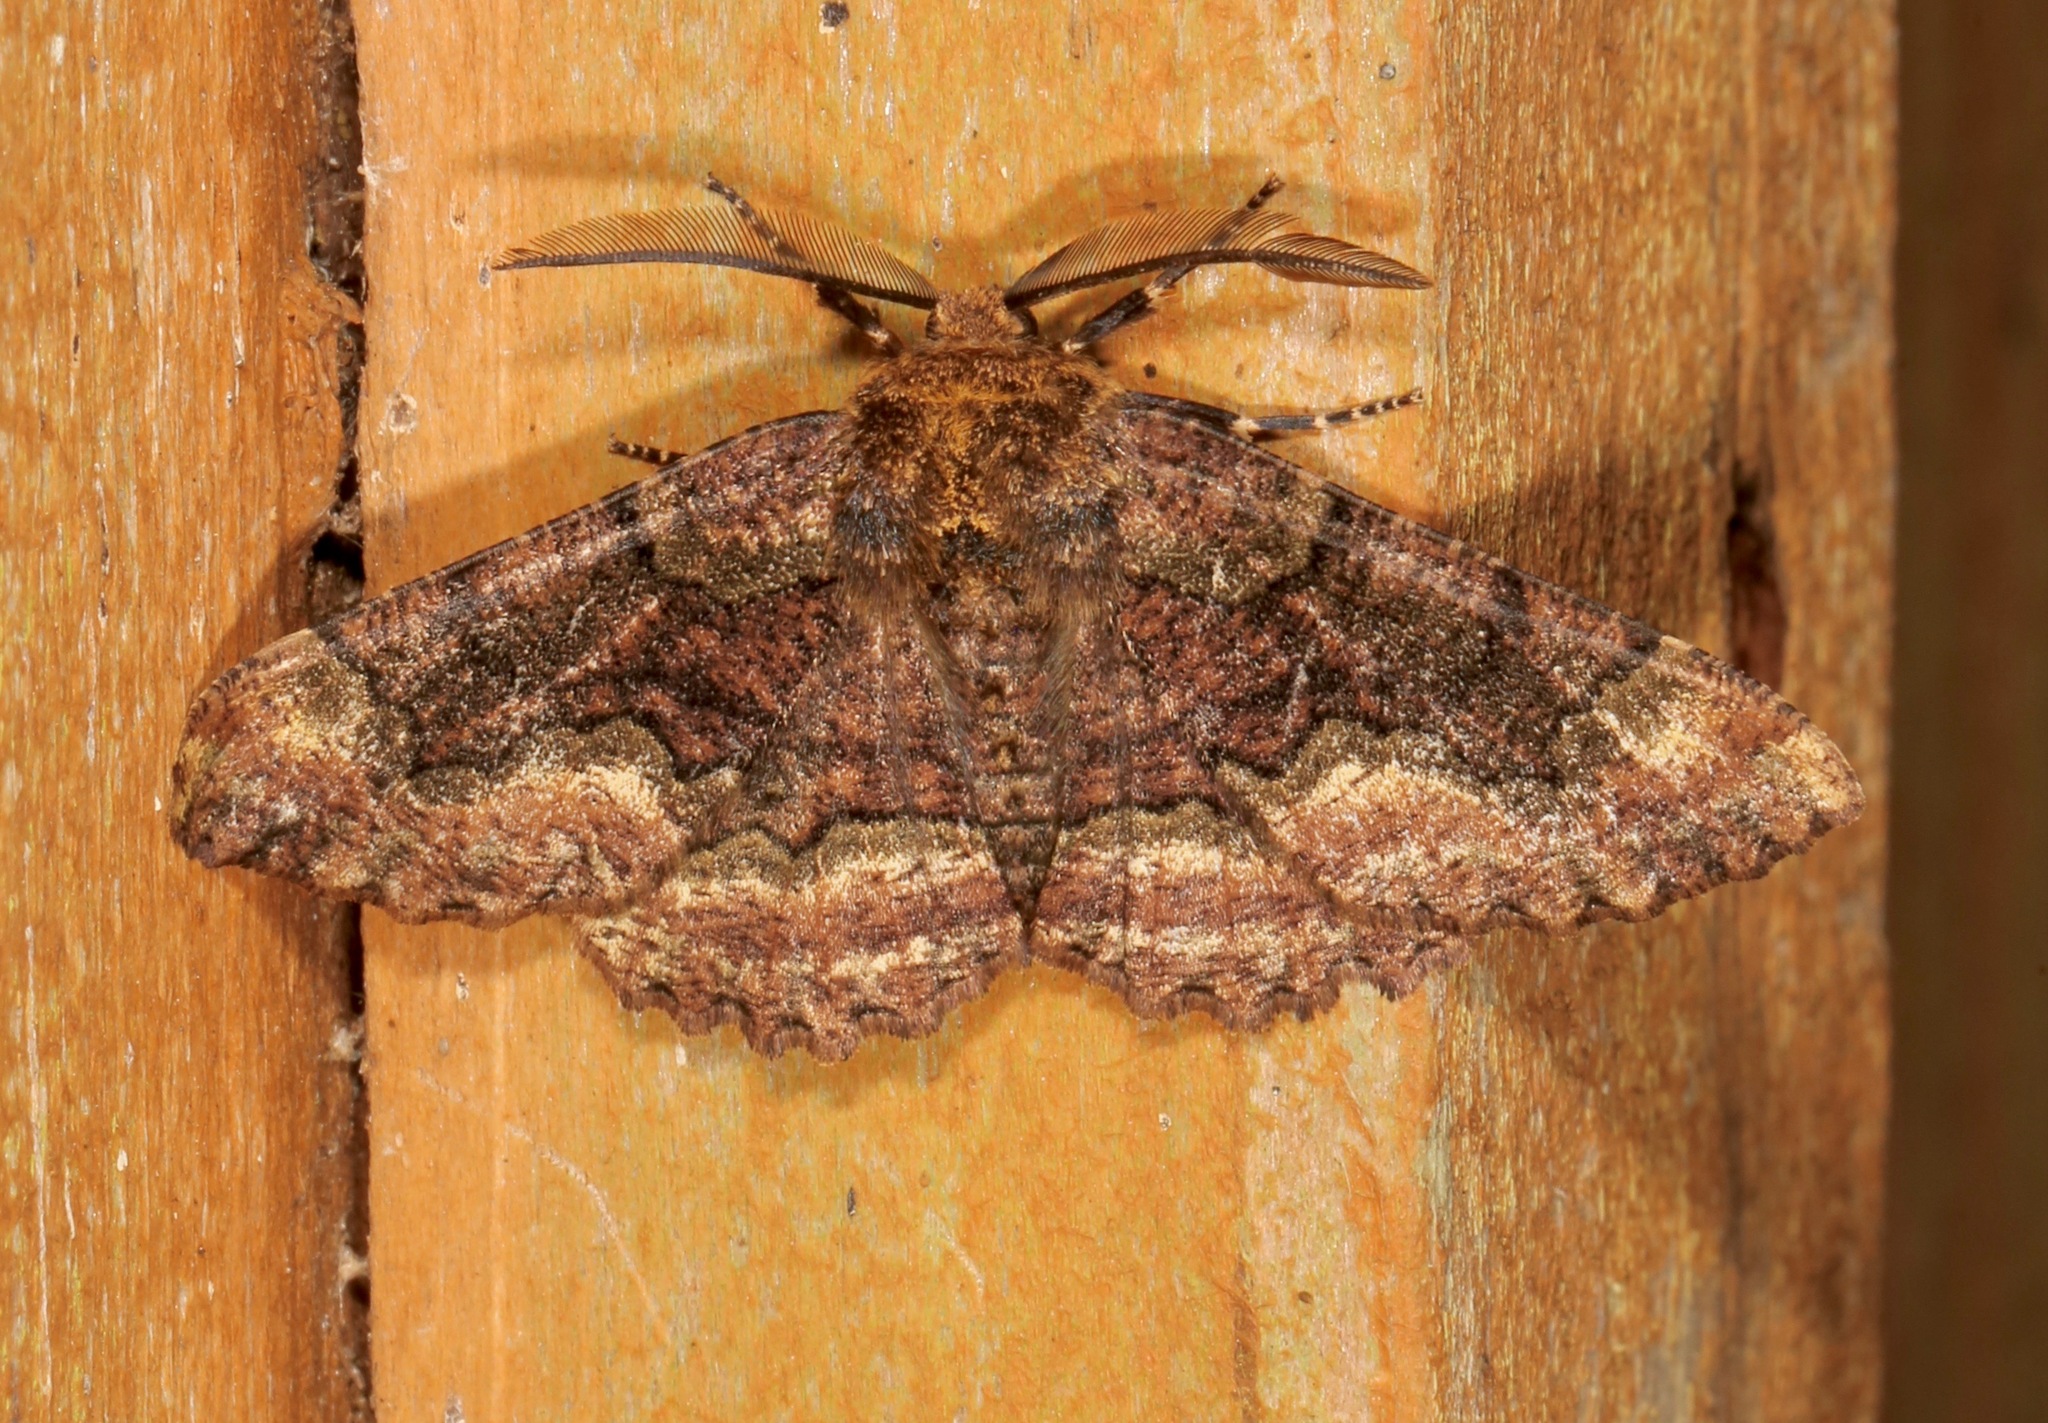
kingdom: Animalia
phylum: Arthropoda
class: Insecta
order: Lepidoptera
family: Geometridae
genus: Phaeoura
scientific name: Phaeoura quernaria
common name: Oak beauty
